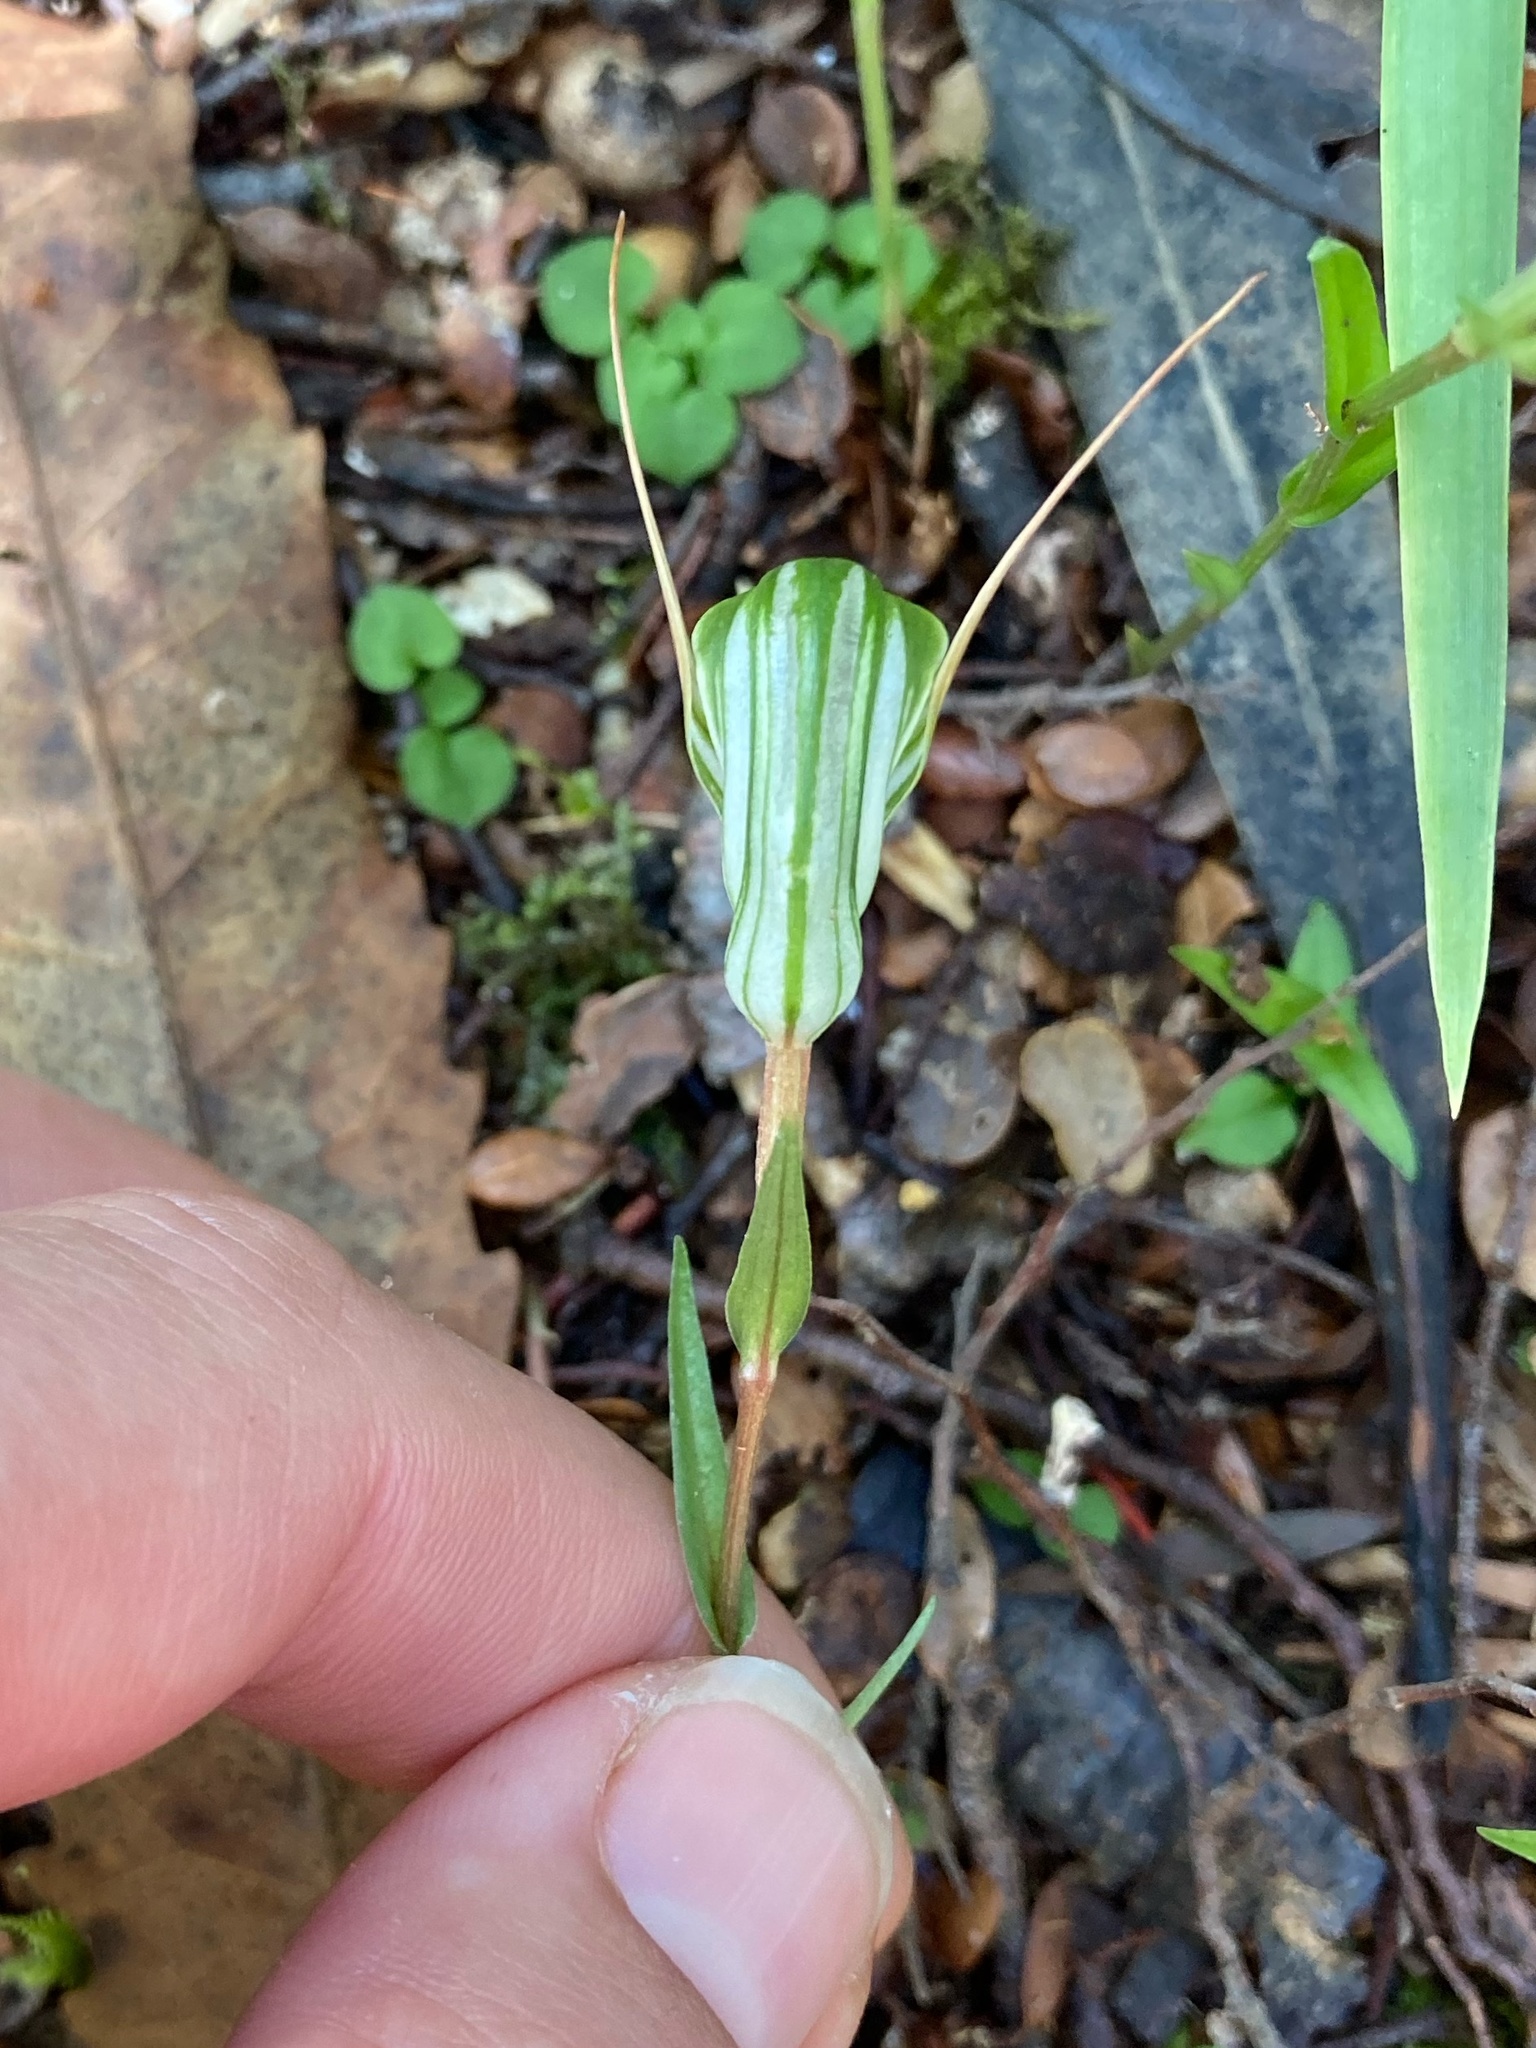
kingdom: Plantae
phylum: Tracheophyta
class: Liliopsida
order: Asparagales
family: Orchidaceae
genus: Pterostylis
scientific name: Pterostylis alobula
